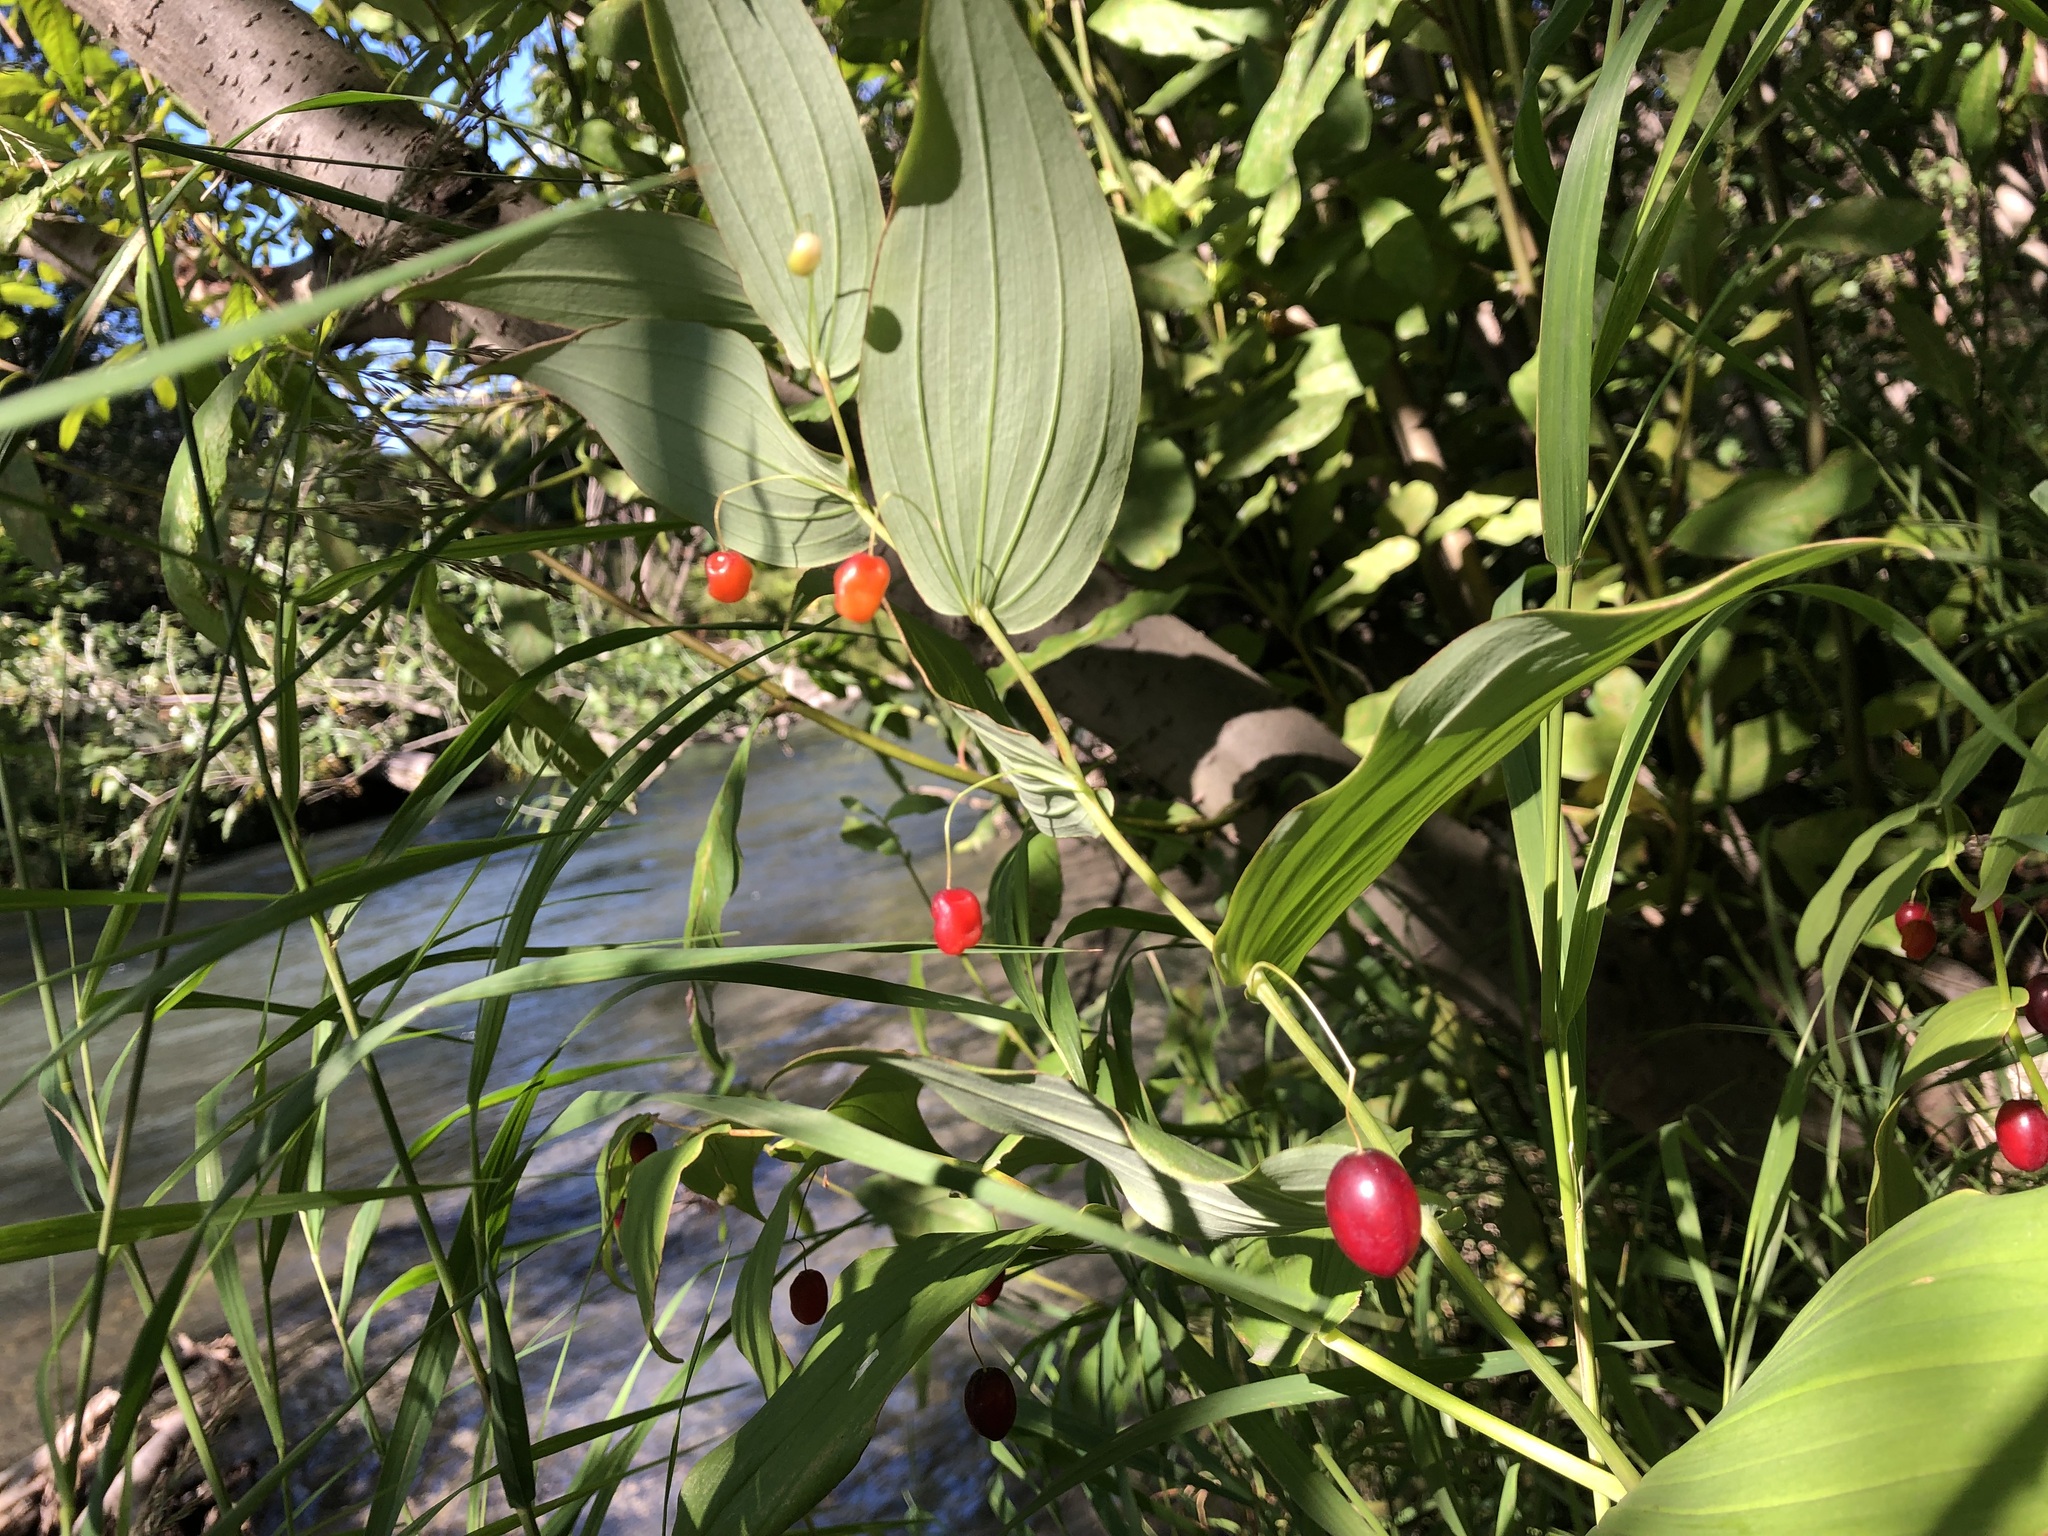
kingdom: Plantae
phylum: Tracheophyta
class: Liliopsida
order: Liliales
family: Liliaceae
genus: Streptopus
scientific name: Streptopus amplexifolius
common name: Clasp twisted stalk
